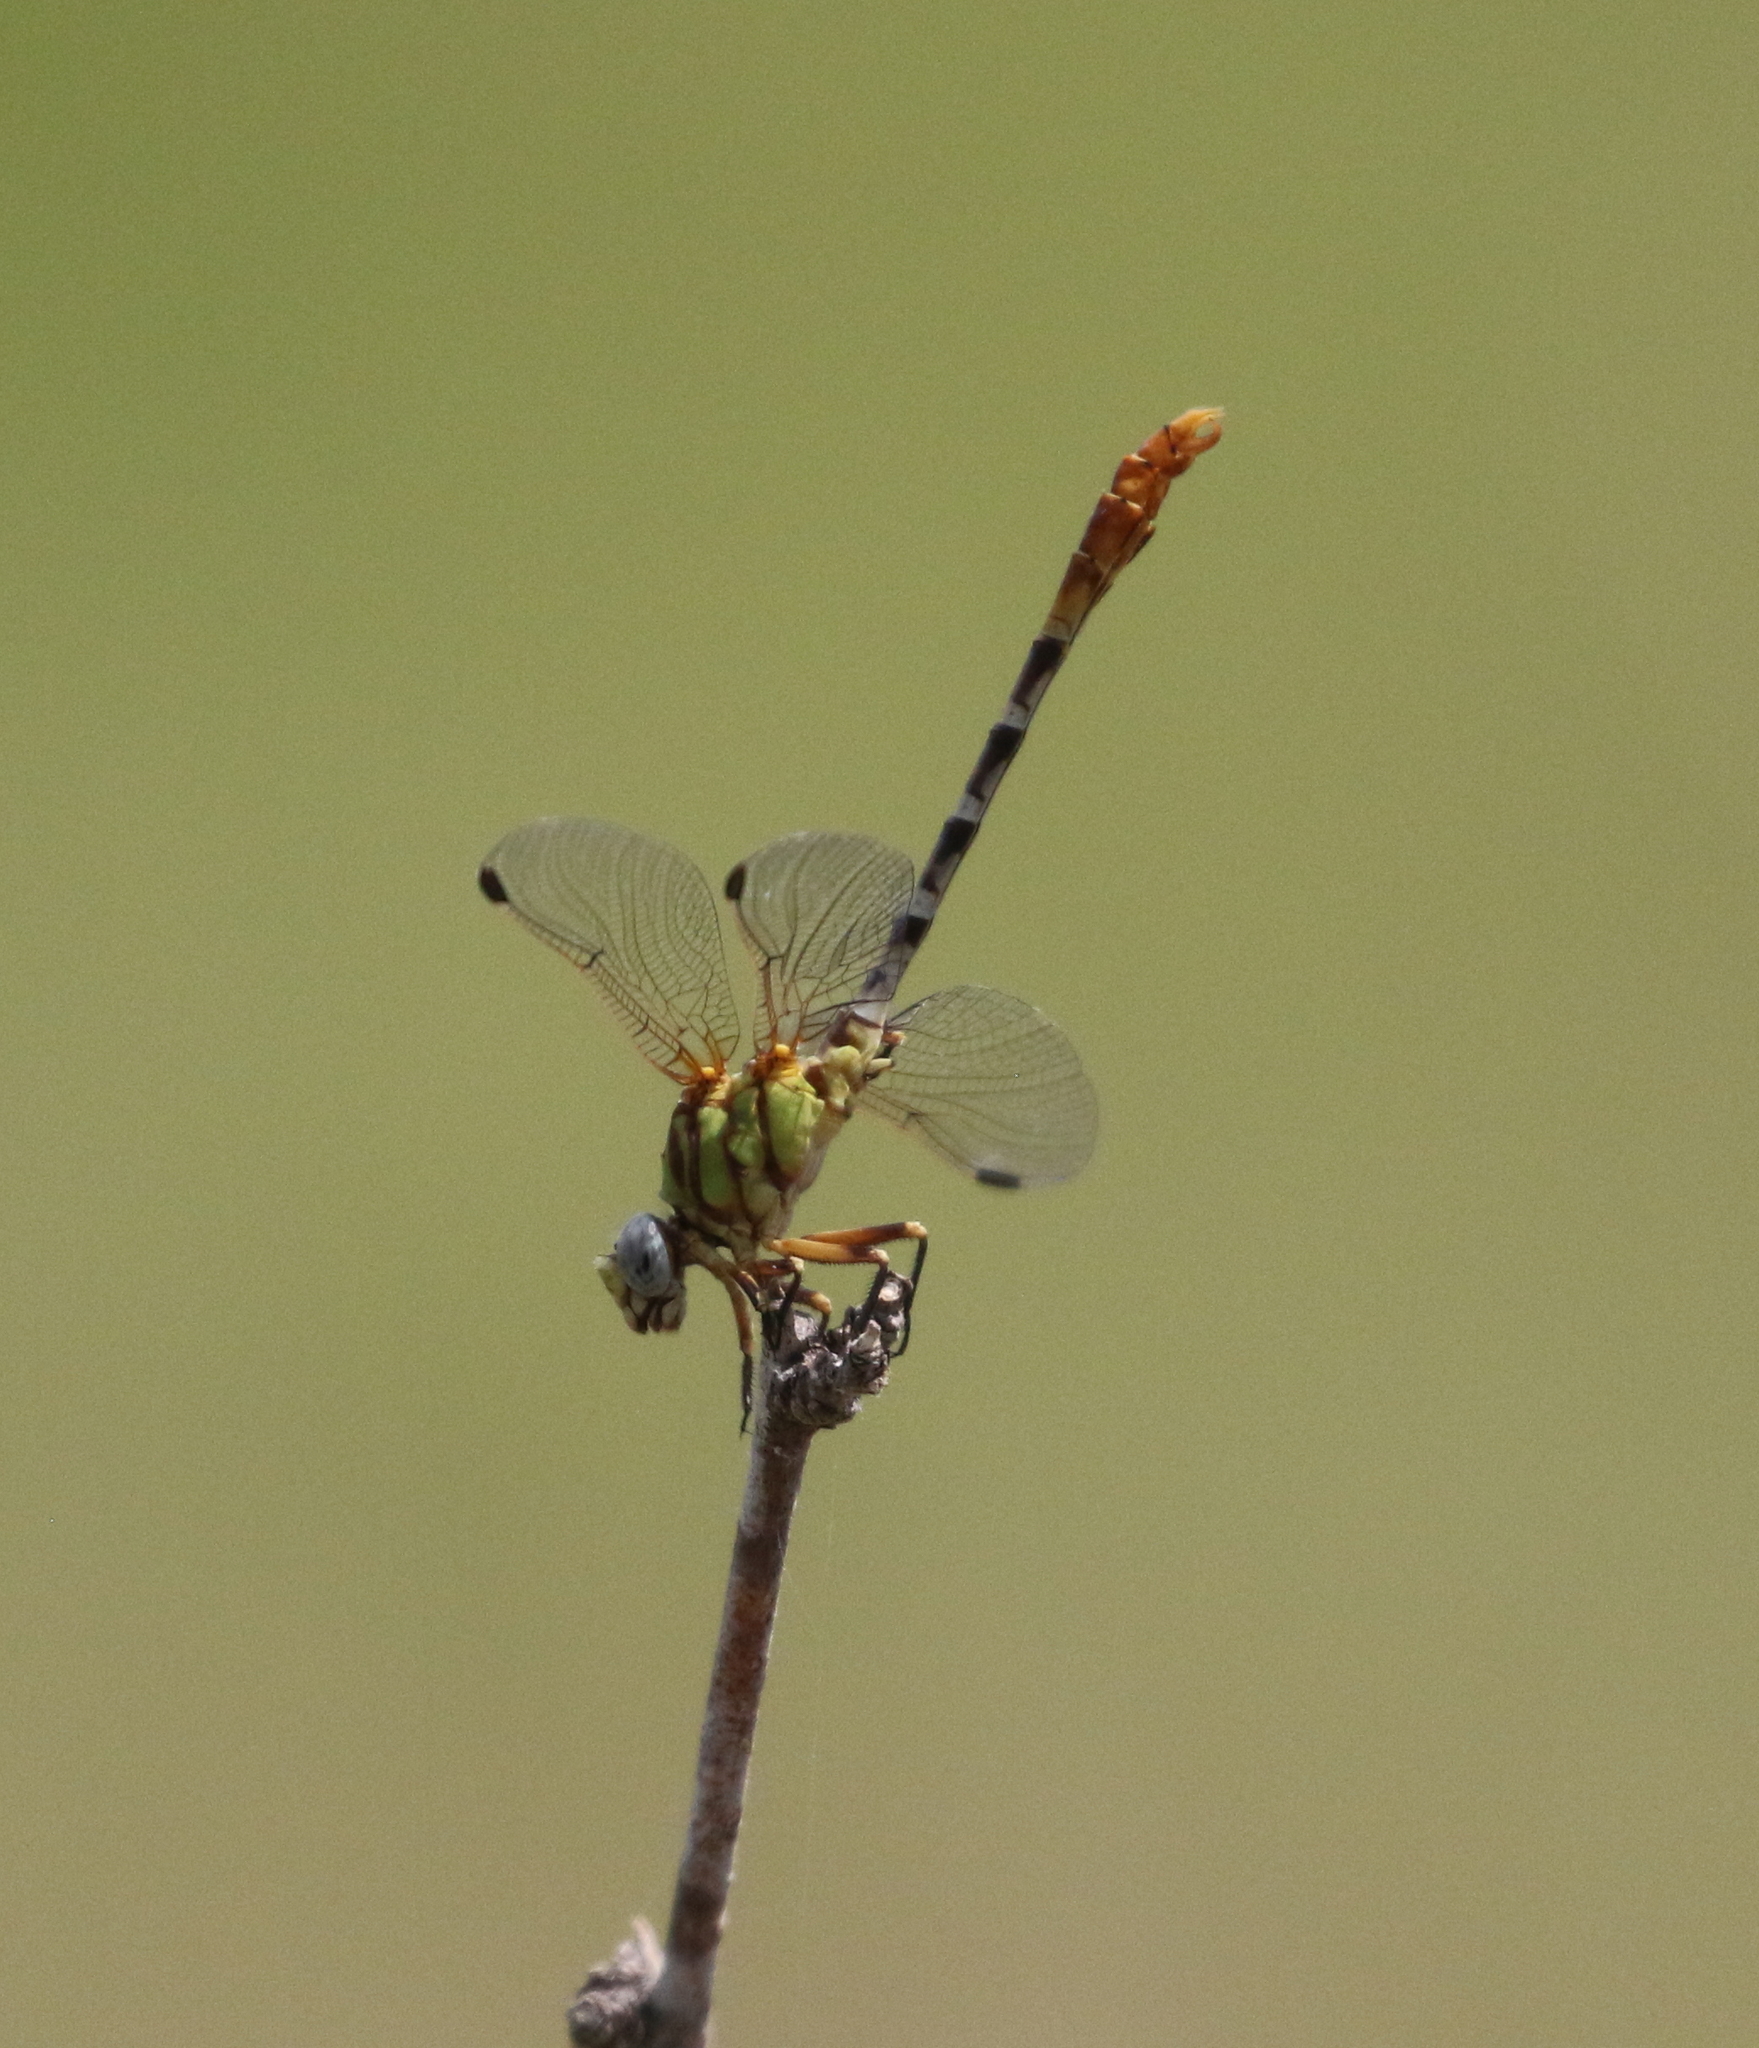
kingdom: Animalia
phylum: Arthropoda
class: Insecta
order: Odonata
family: Gomphidae
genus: Erpetogomphus
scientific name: Erpetogomphus designatus
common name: Eastern ringtail
